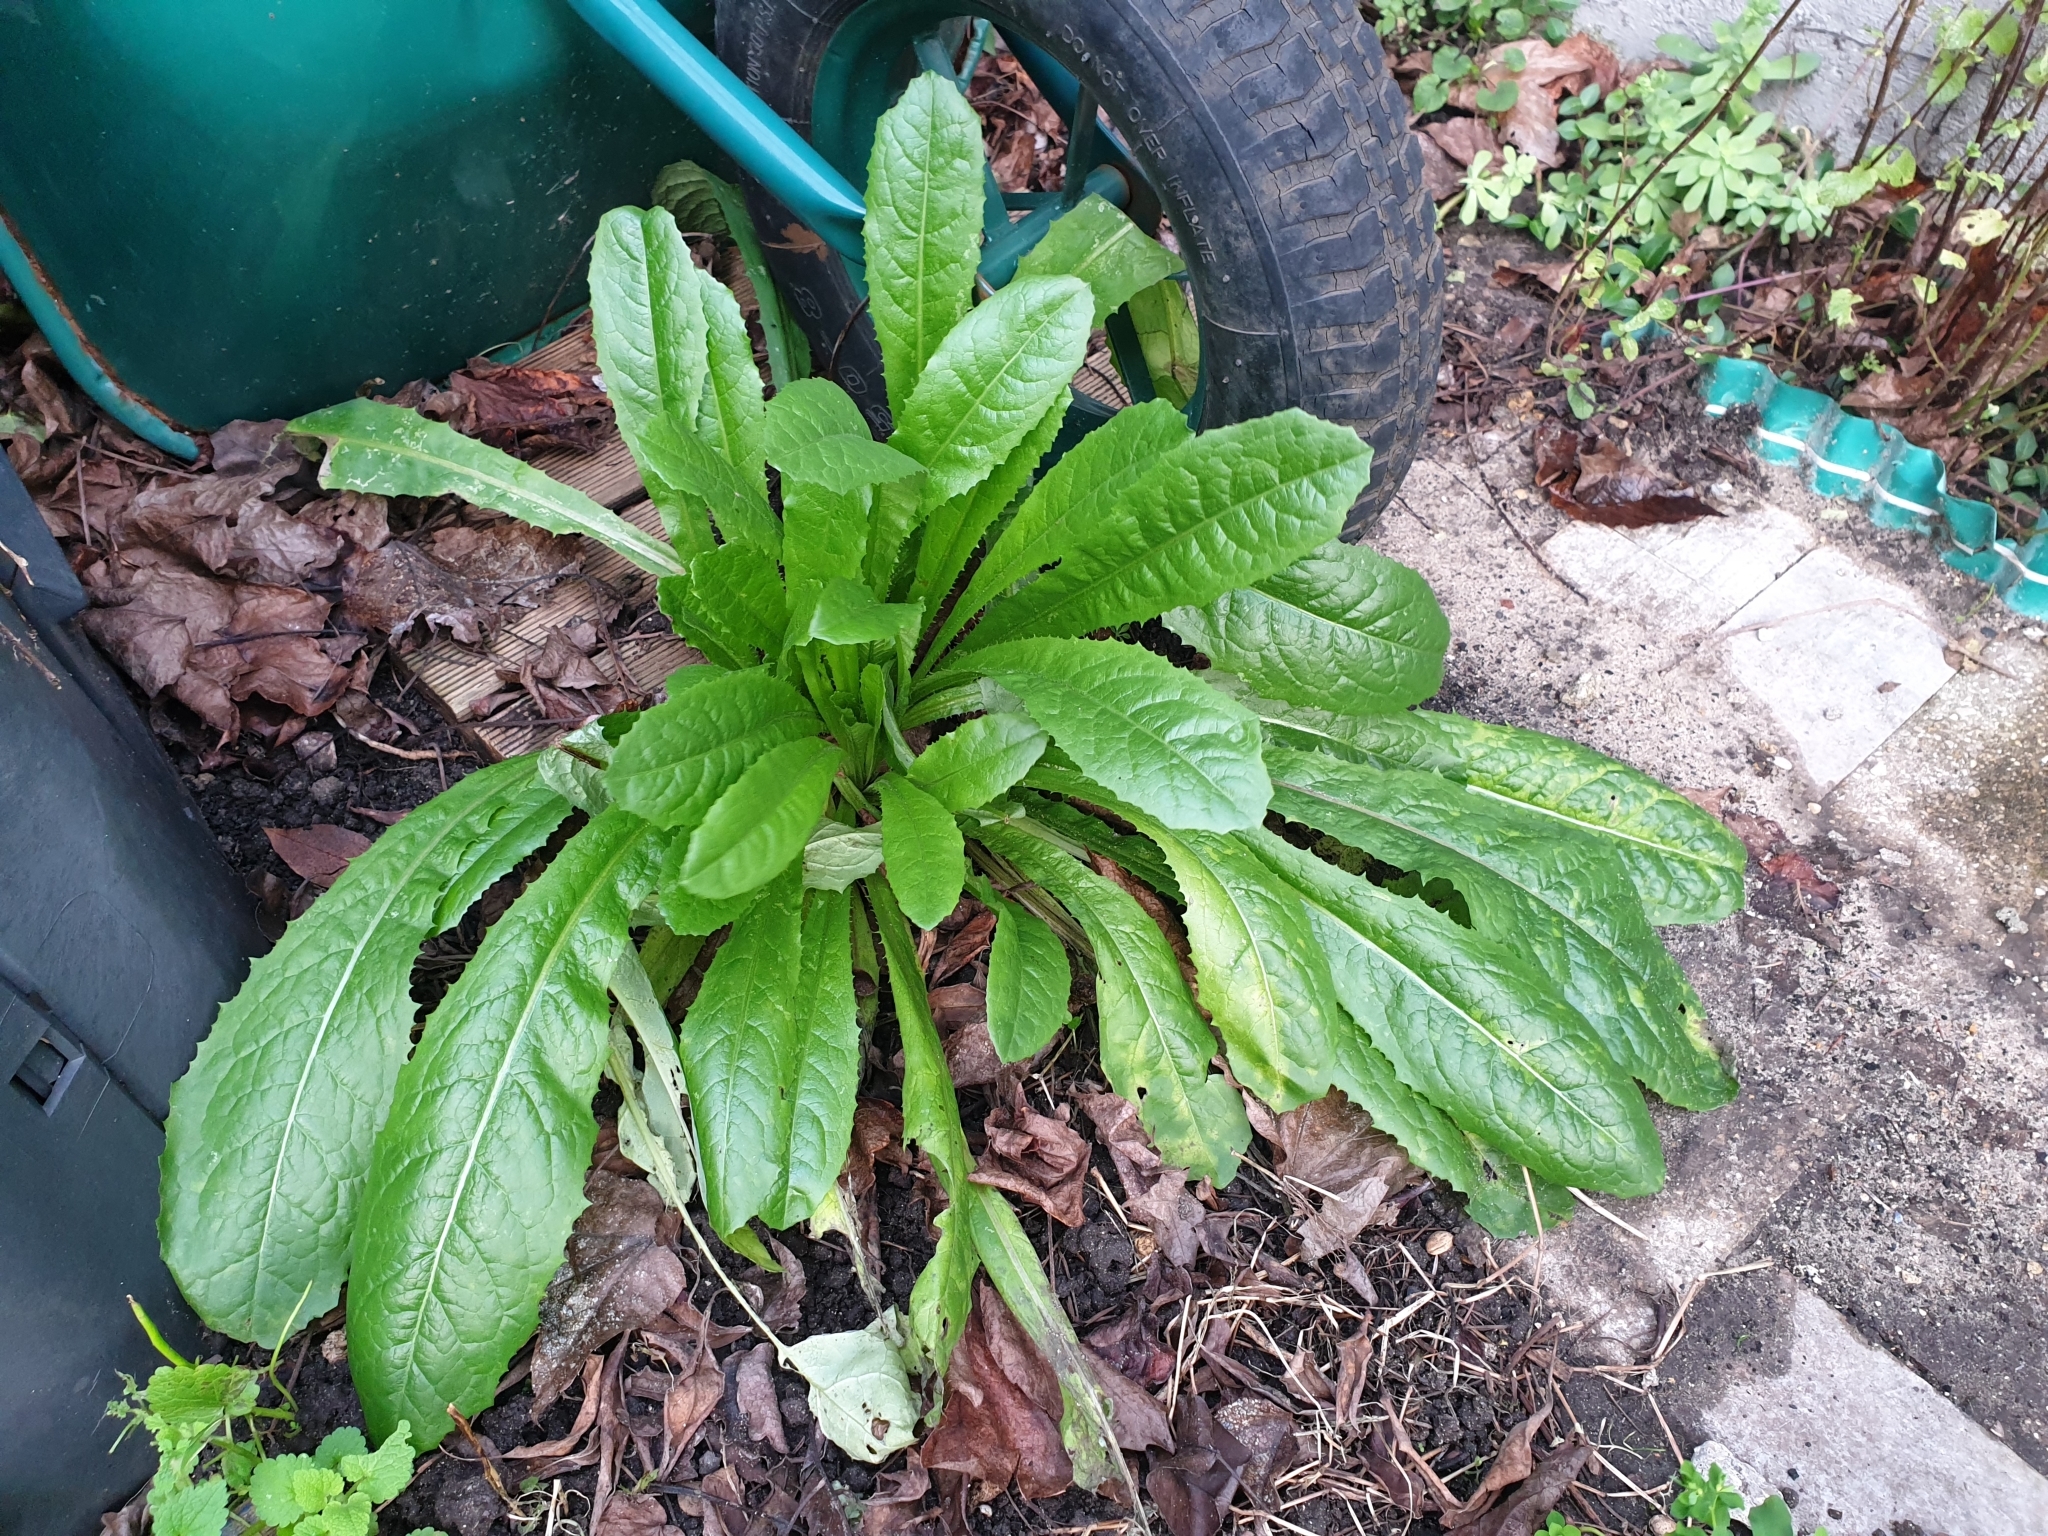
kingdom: Plantae
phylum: Tracheophyta
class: Magnoliopsida
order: Asterales
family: Asteraceae
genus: Lactuca
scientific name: Lactuca virosa
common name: Great lettuce
